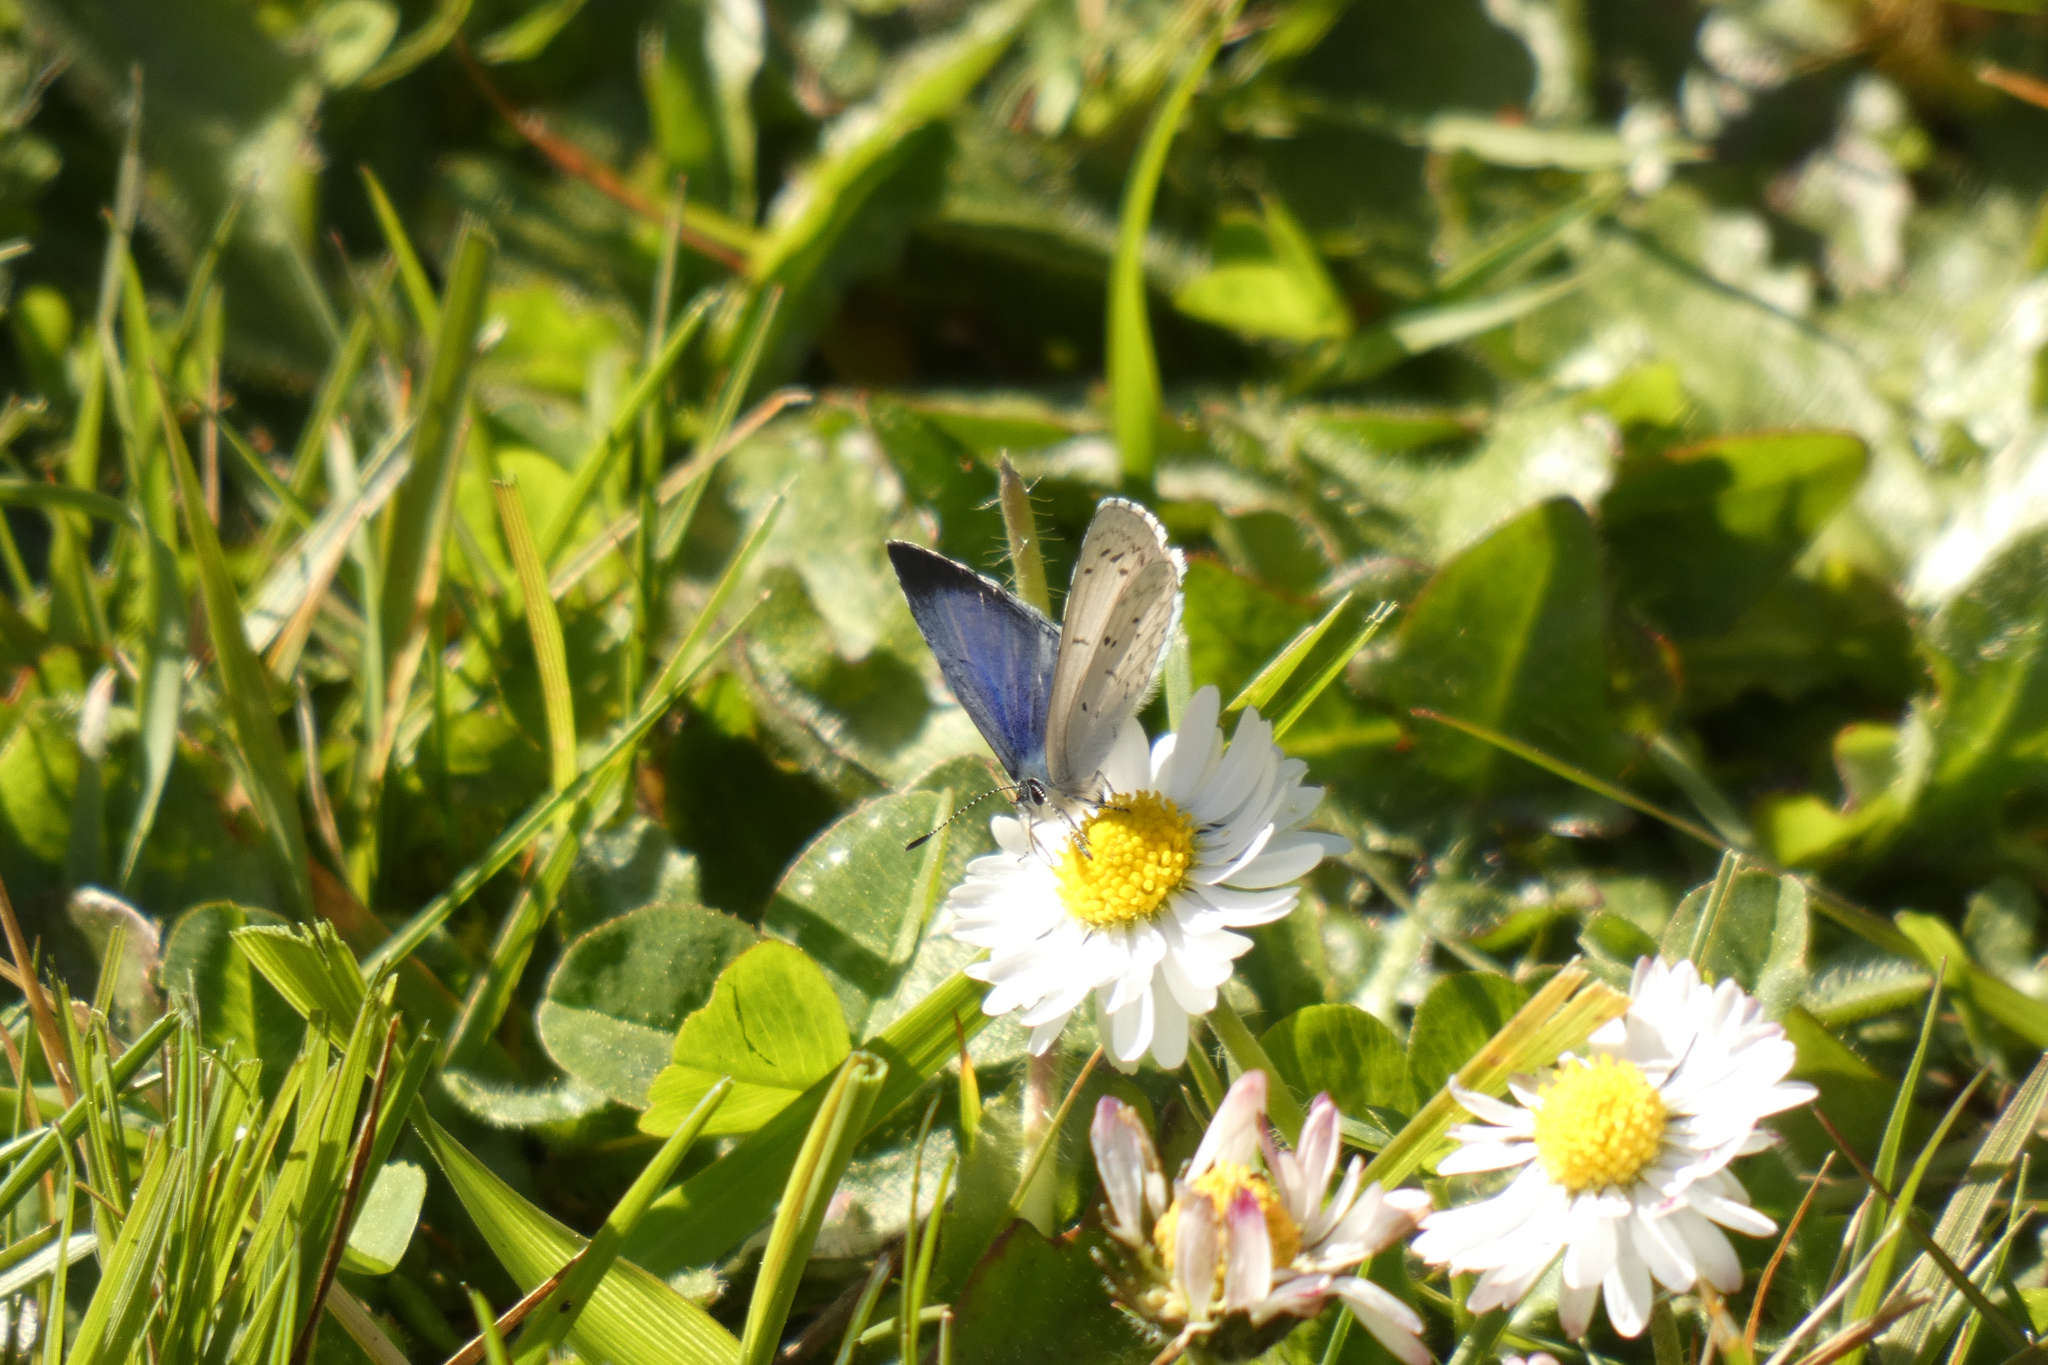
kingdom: Animalia
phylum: Arthropoda
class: Insecta
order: Lepidoptera
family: Lycaenidae
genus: Celastrina
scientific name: Celastrina ladon
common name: Spring azure
